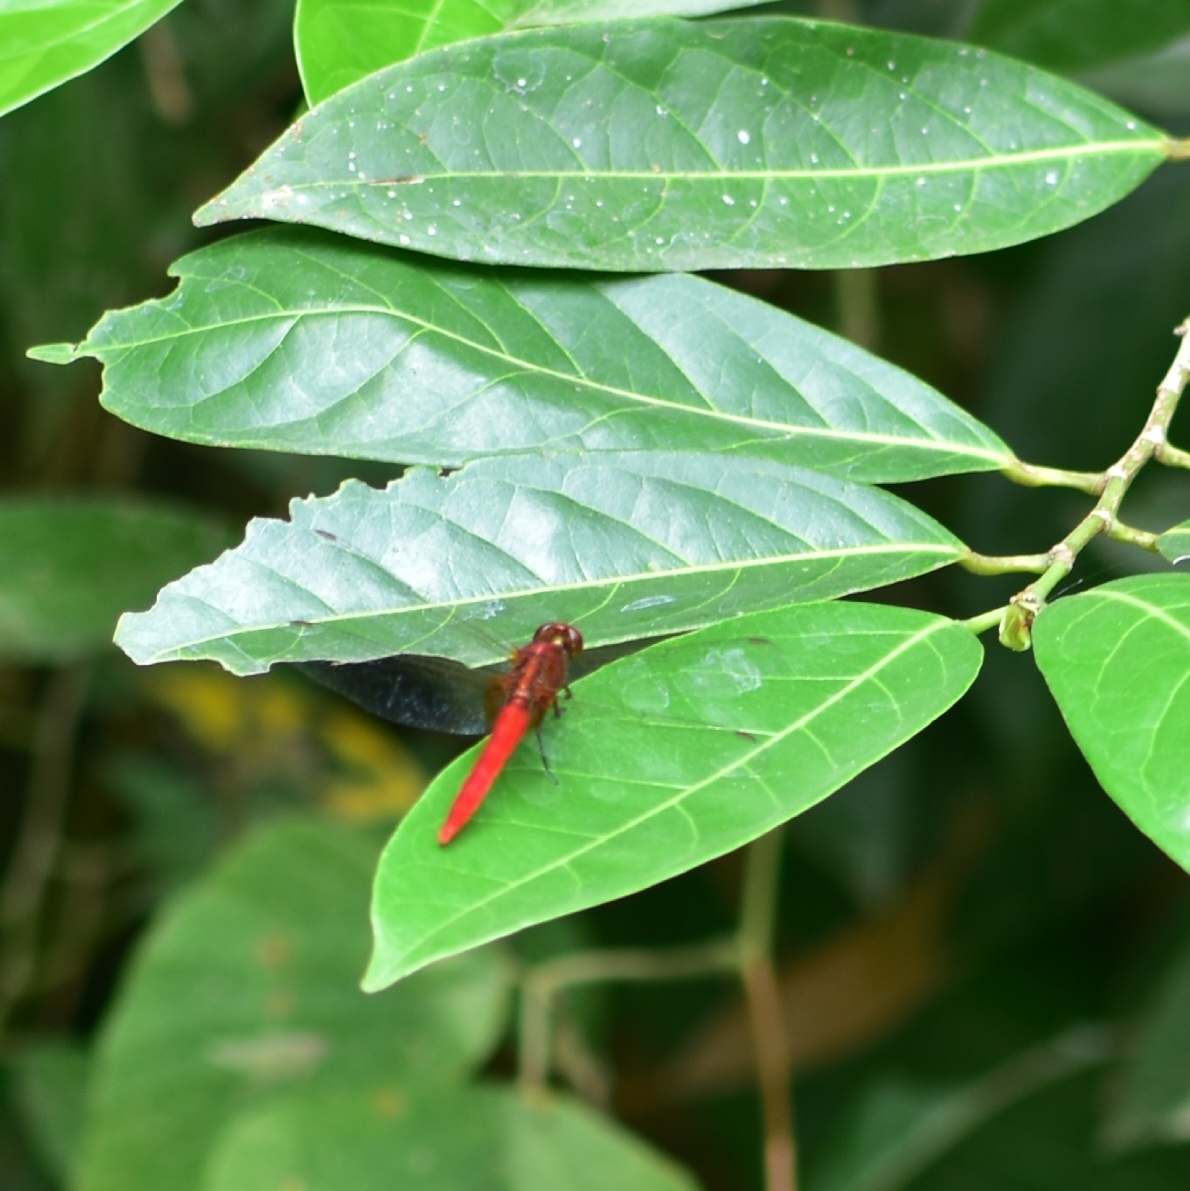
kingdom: Animalia
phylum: Arthropoda
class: Insecta
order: Odonata
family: Libellulidae
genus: Rhodothemis
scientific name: Rhodothemis rufa
